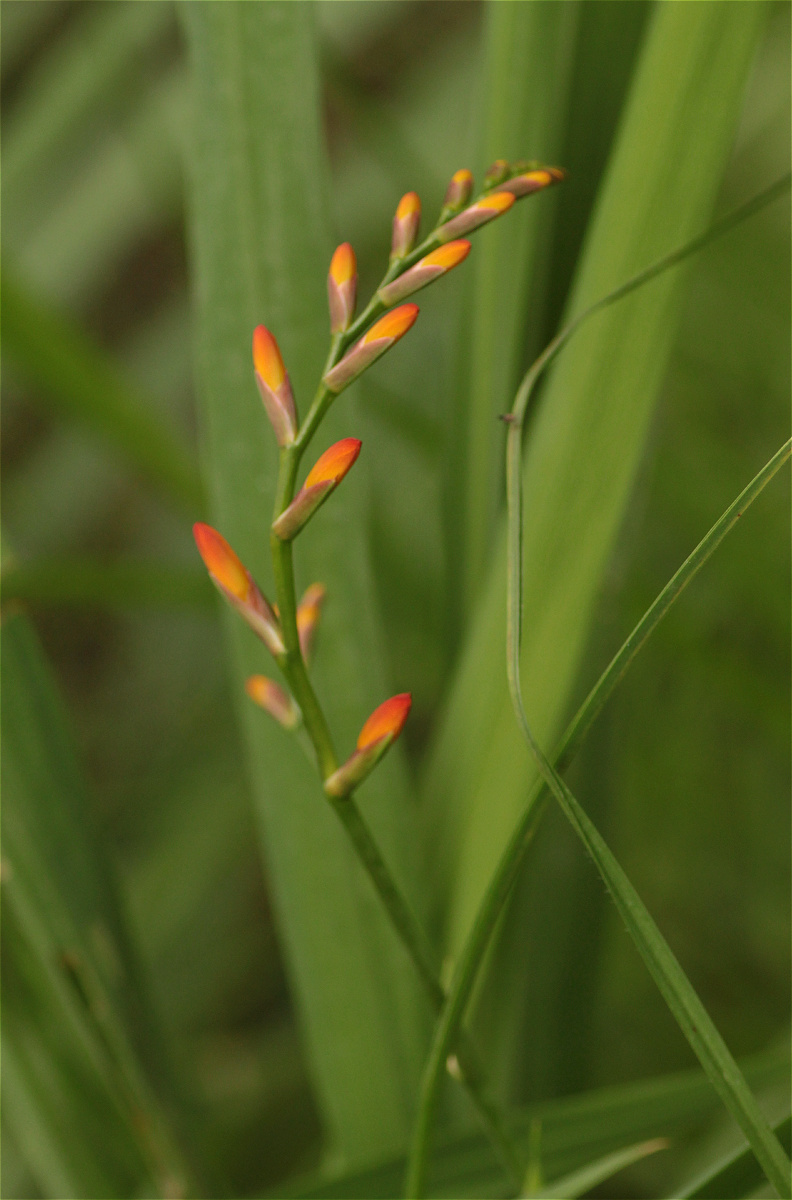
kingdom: Plantae
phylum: Tracheophyta
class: Liliopsida
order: Asparagales
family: Iridaceae
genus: Crocosmia
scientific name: Crocosmia crocosmiiflora
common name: Montbretia
